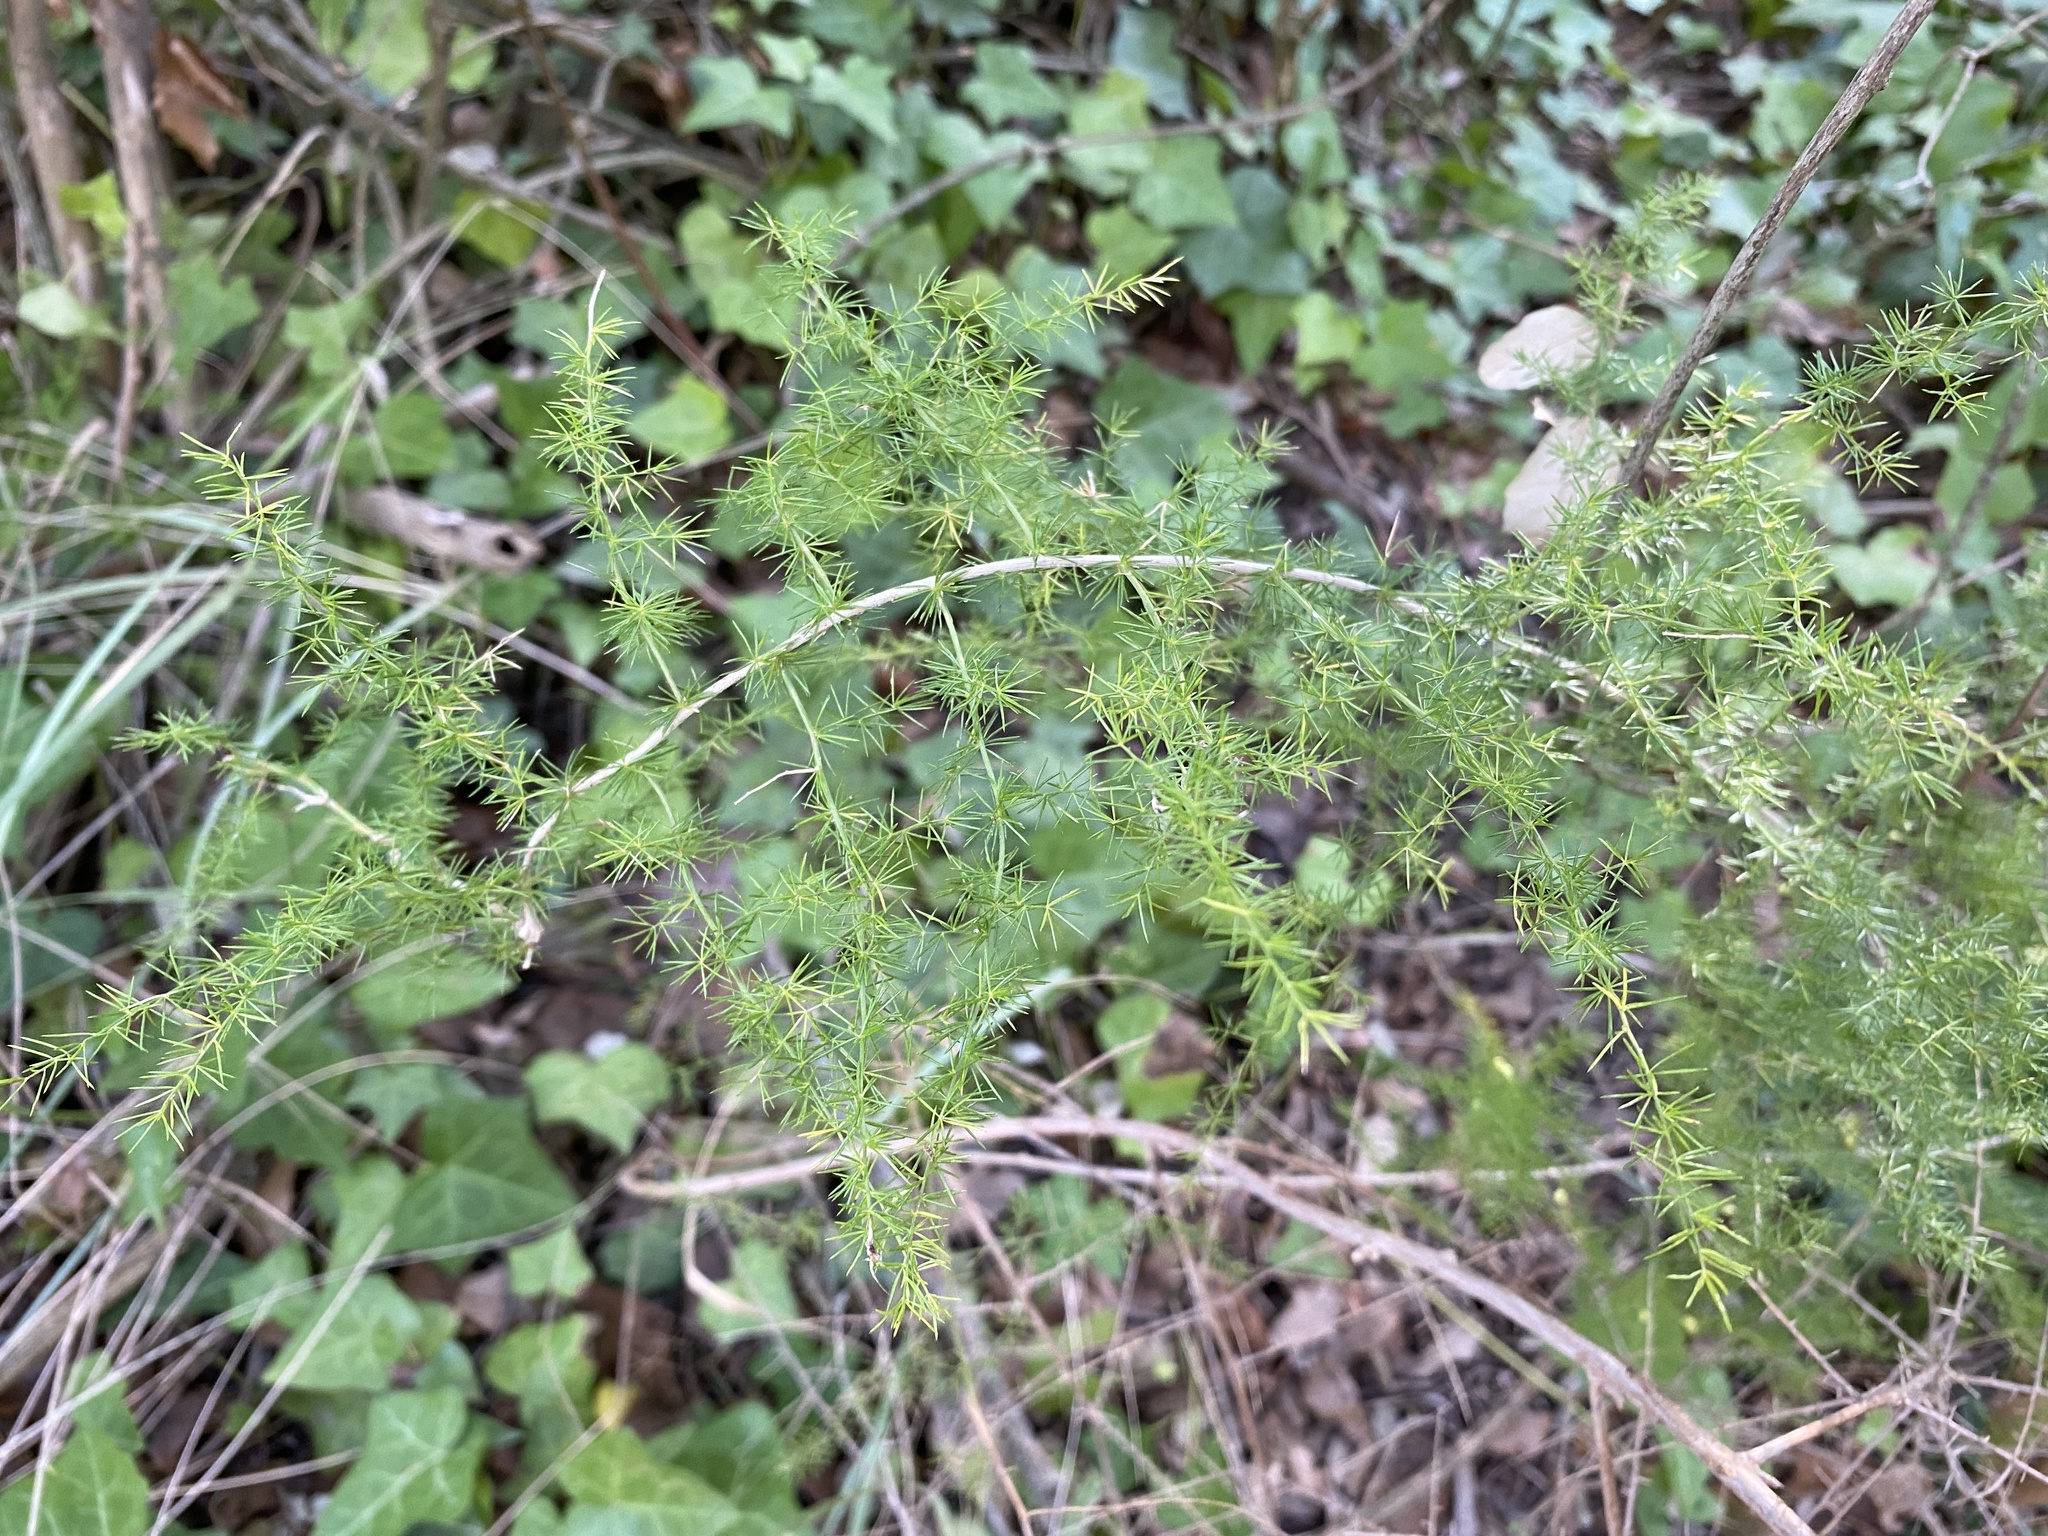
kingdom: Plantae
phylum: Tracheophyta
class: Liliopsida
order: Asparagales
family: Asparagaceae
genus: Asparagus
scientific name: Asparagus acutifolius
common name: Wild asparagus
